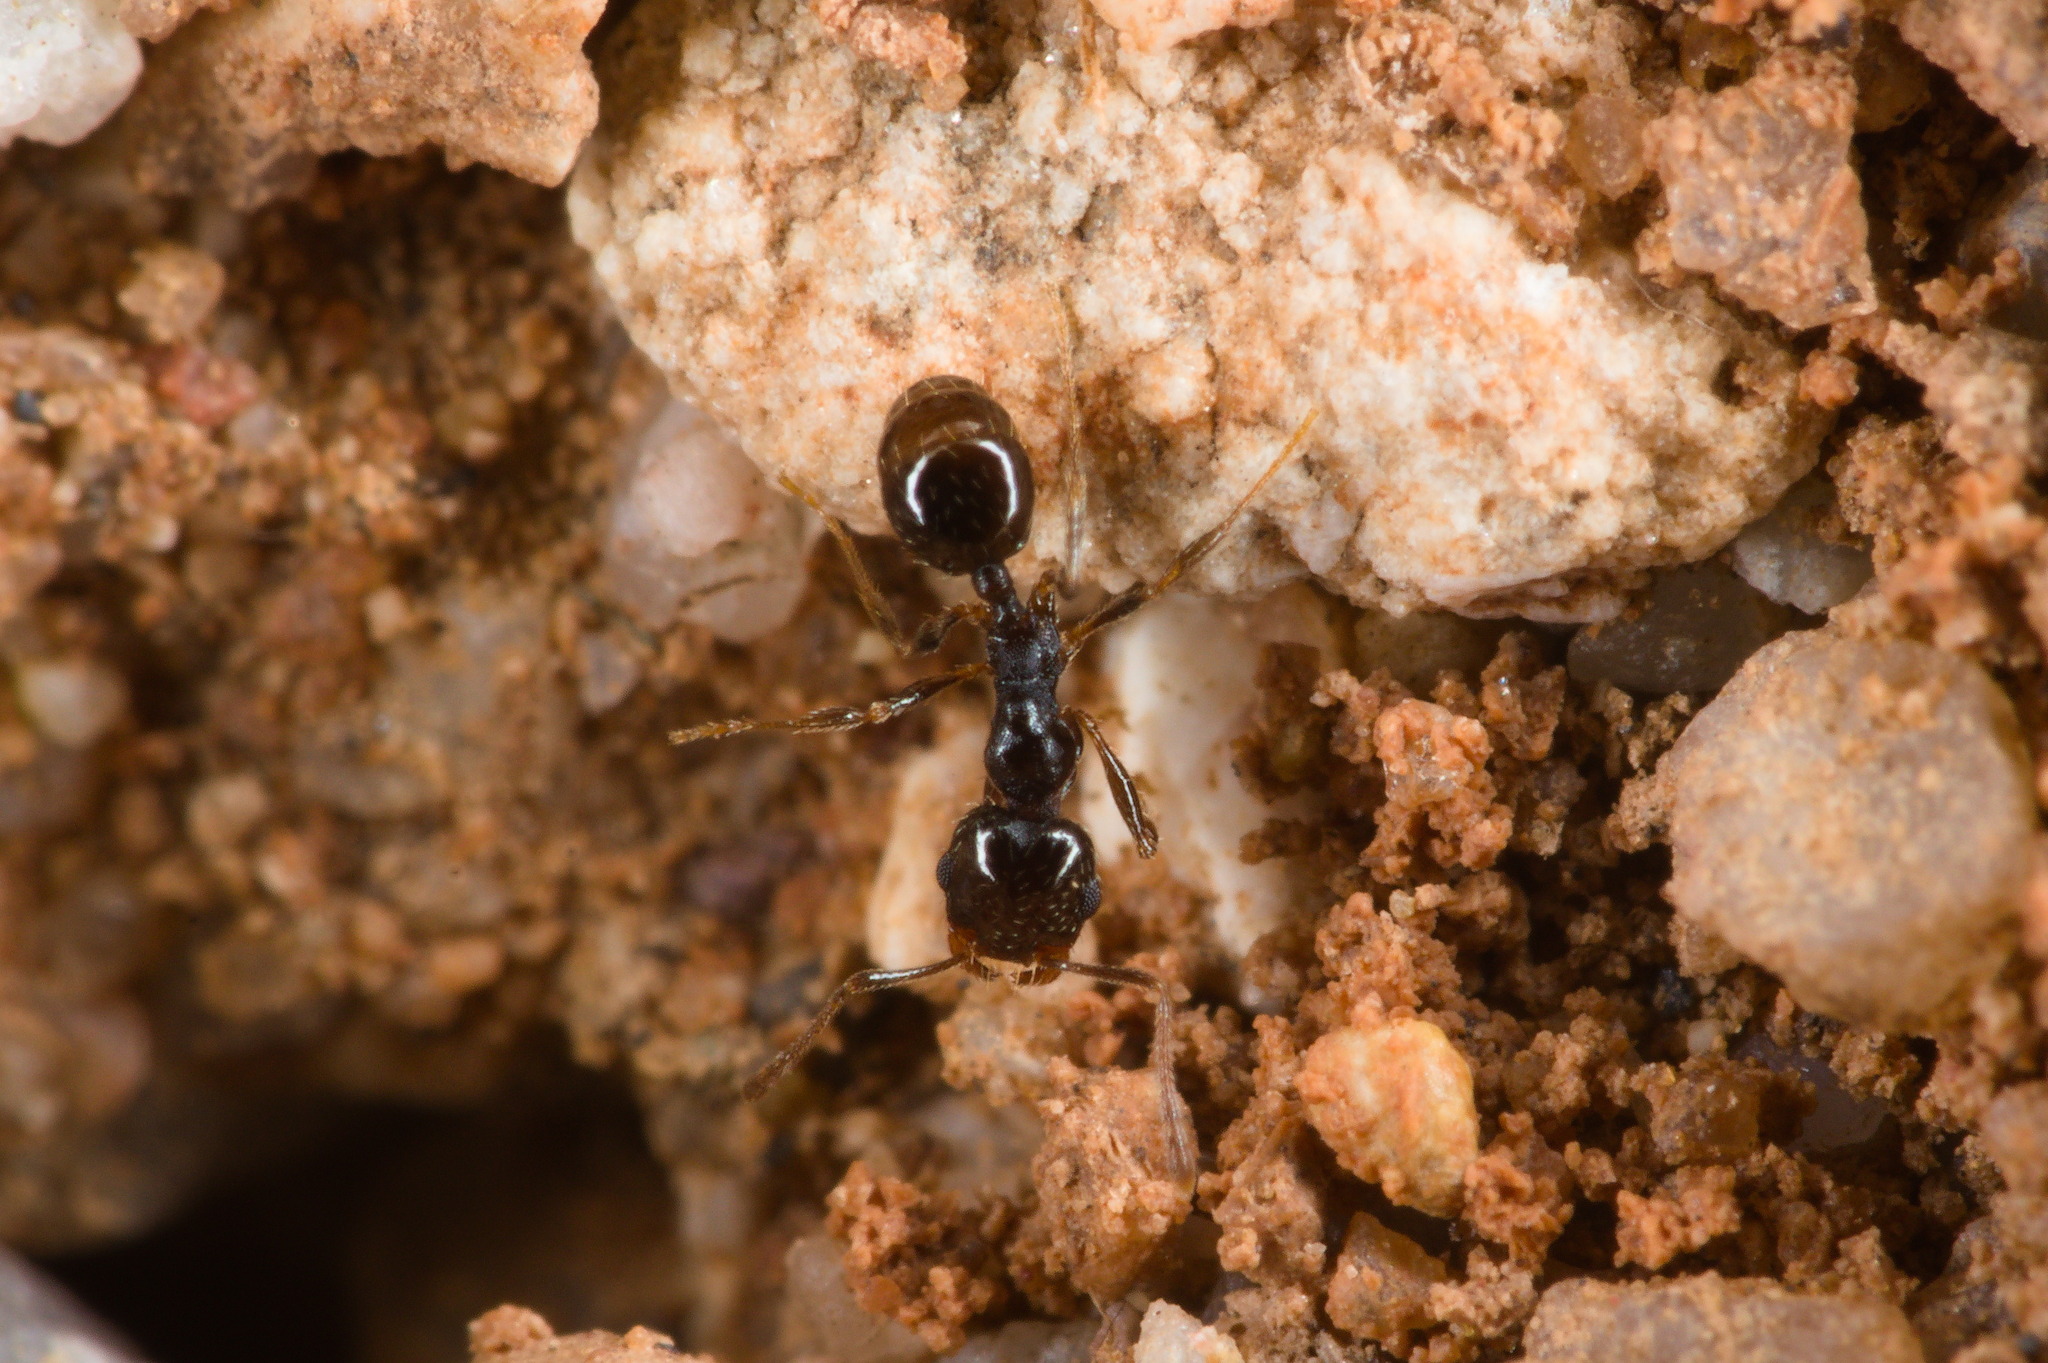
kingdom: Animalia
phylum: Arthropoda
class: Insecta
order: Hymenoptera
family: Formicidae
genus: Pheidole
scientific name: Pheidole xerophila
